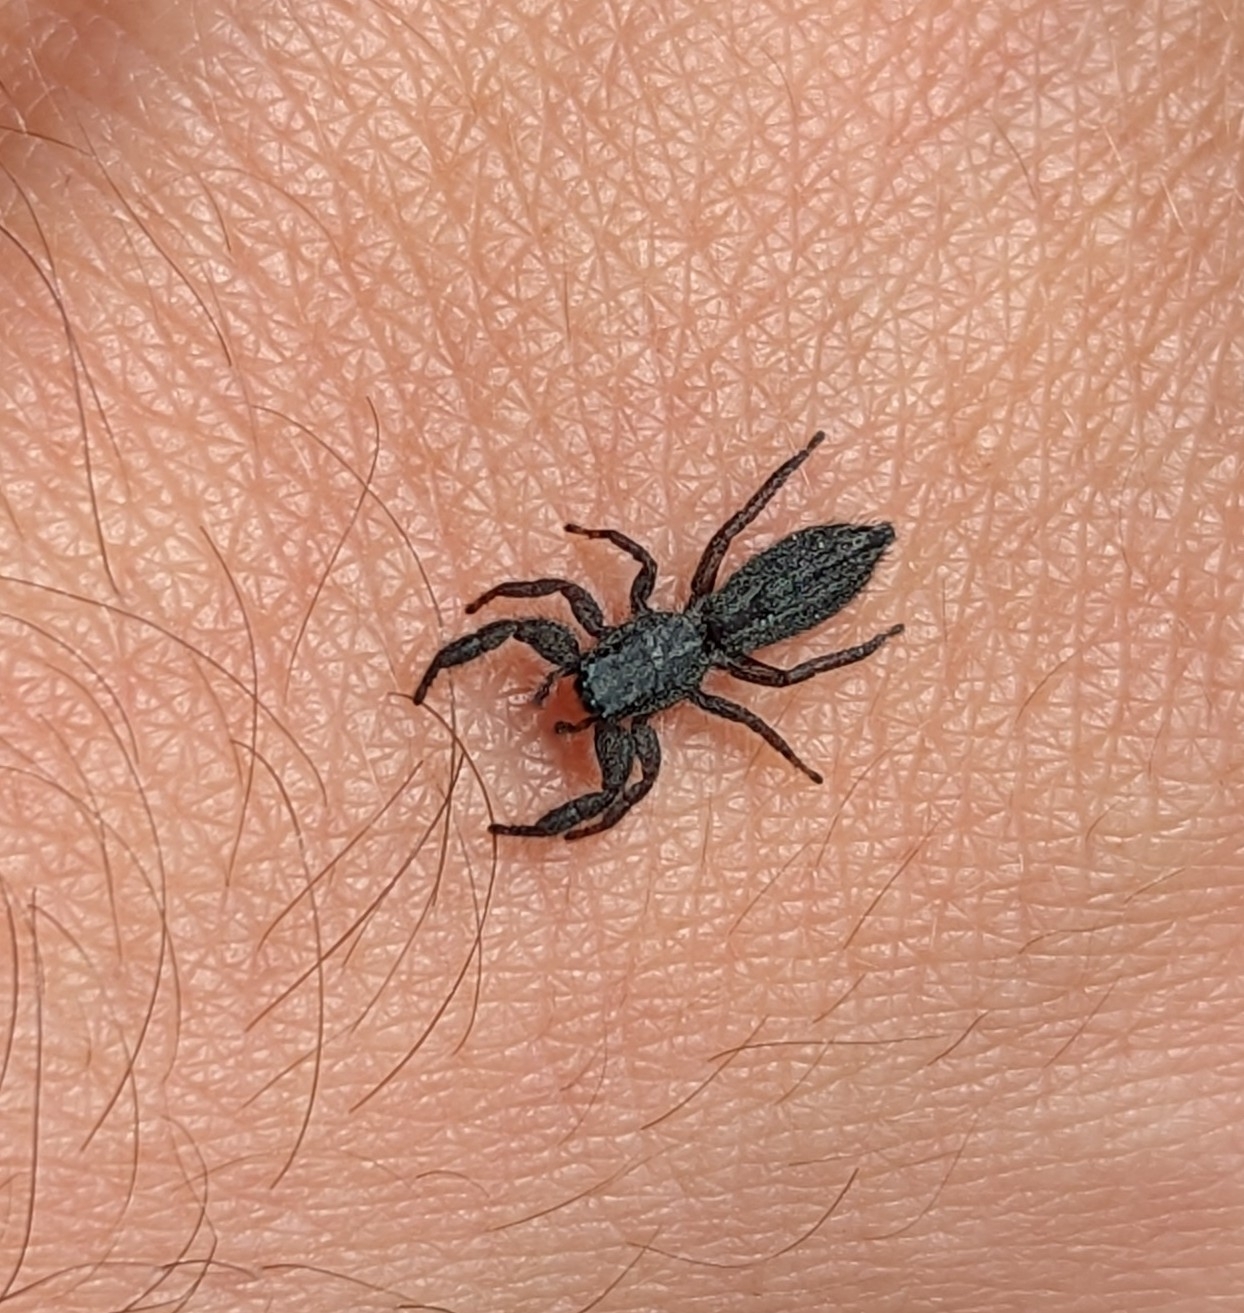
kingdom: Animalia
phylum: Arthropoda
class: Arachnida
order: Araneae
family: Salticidae
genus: Holoplatys
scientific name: Holoplatys apressus
